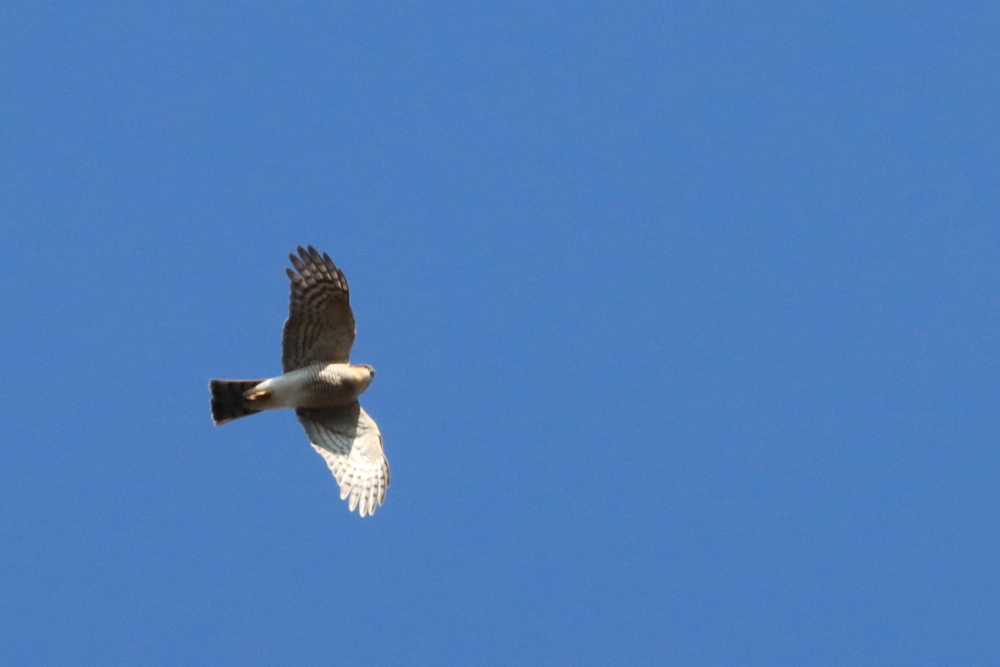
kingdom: Animalia
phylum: Chordata
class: Aves
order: Accipitriformes
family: Accipitridae
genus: Accipiter
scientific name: Accipiter nisus
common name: Eurasian sparrowhawk
